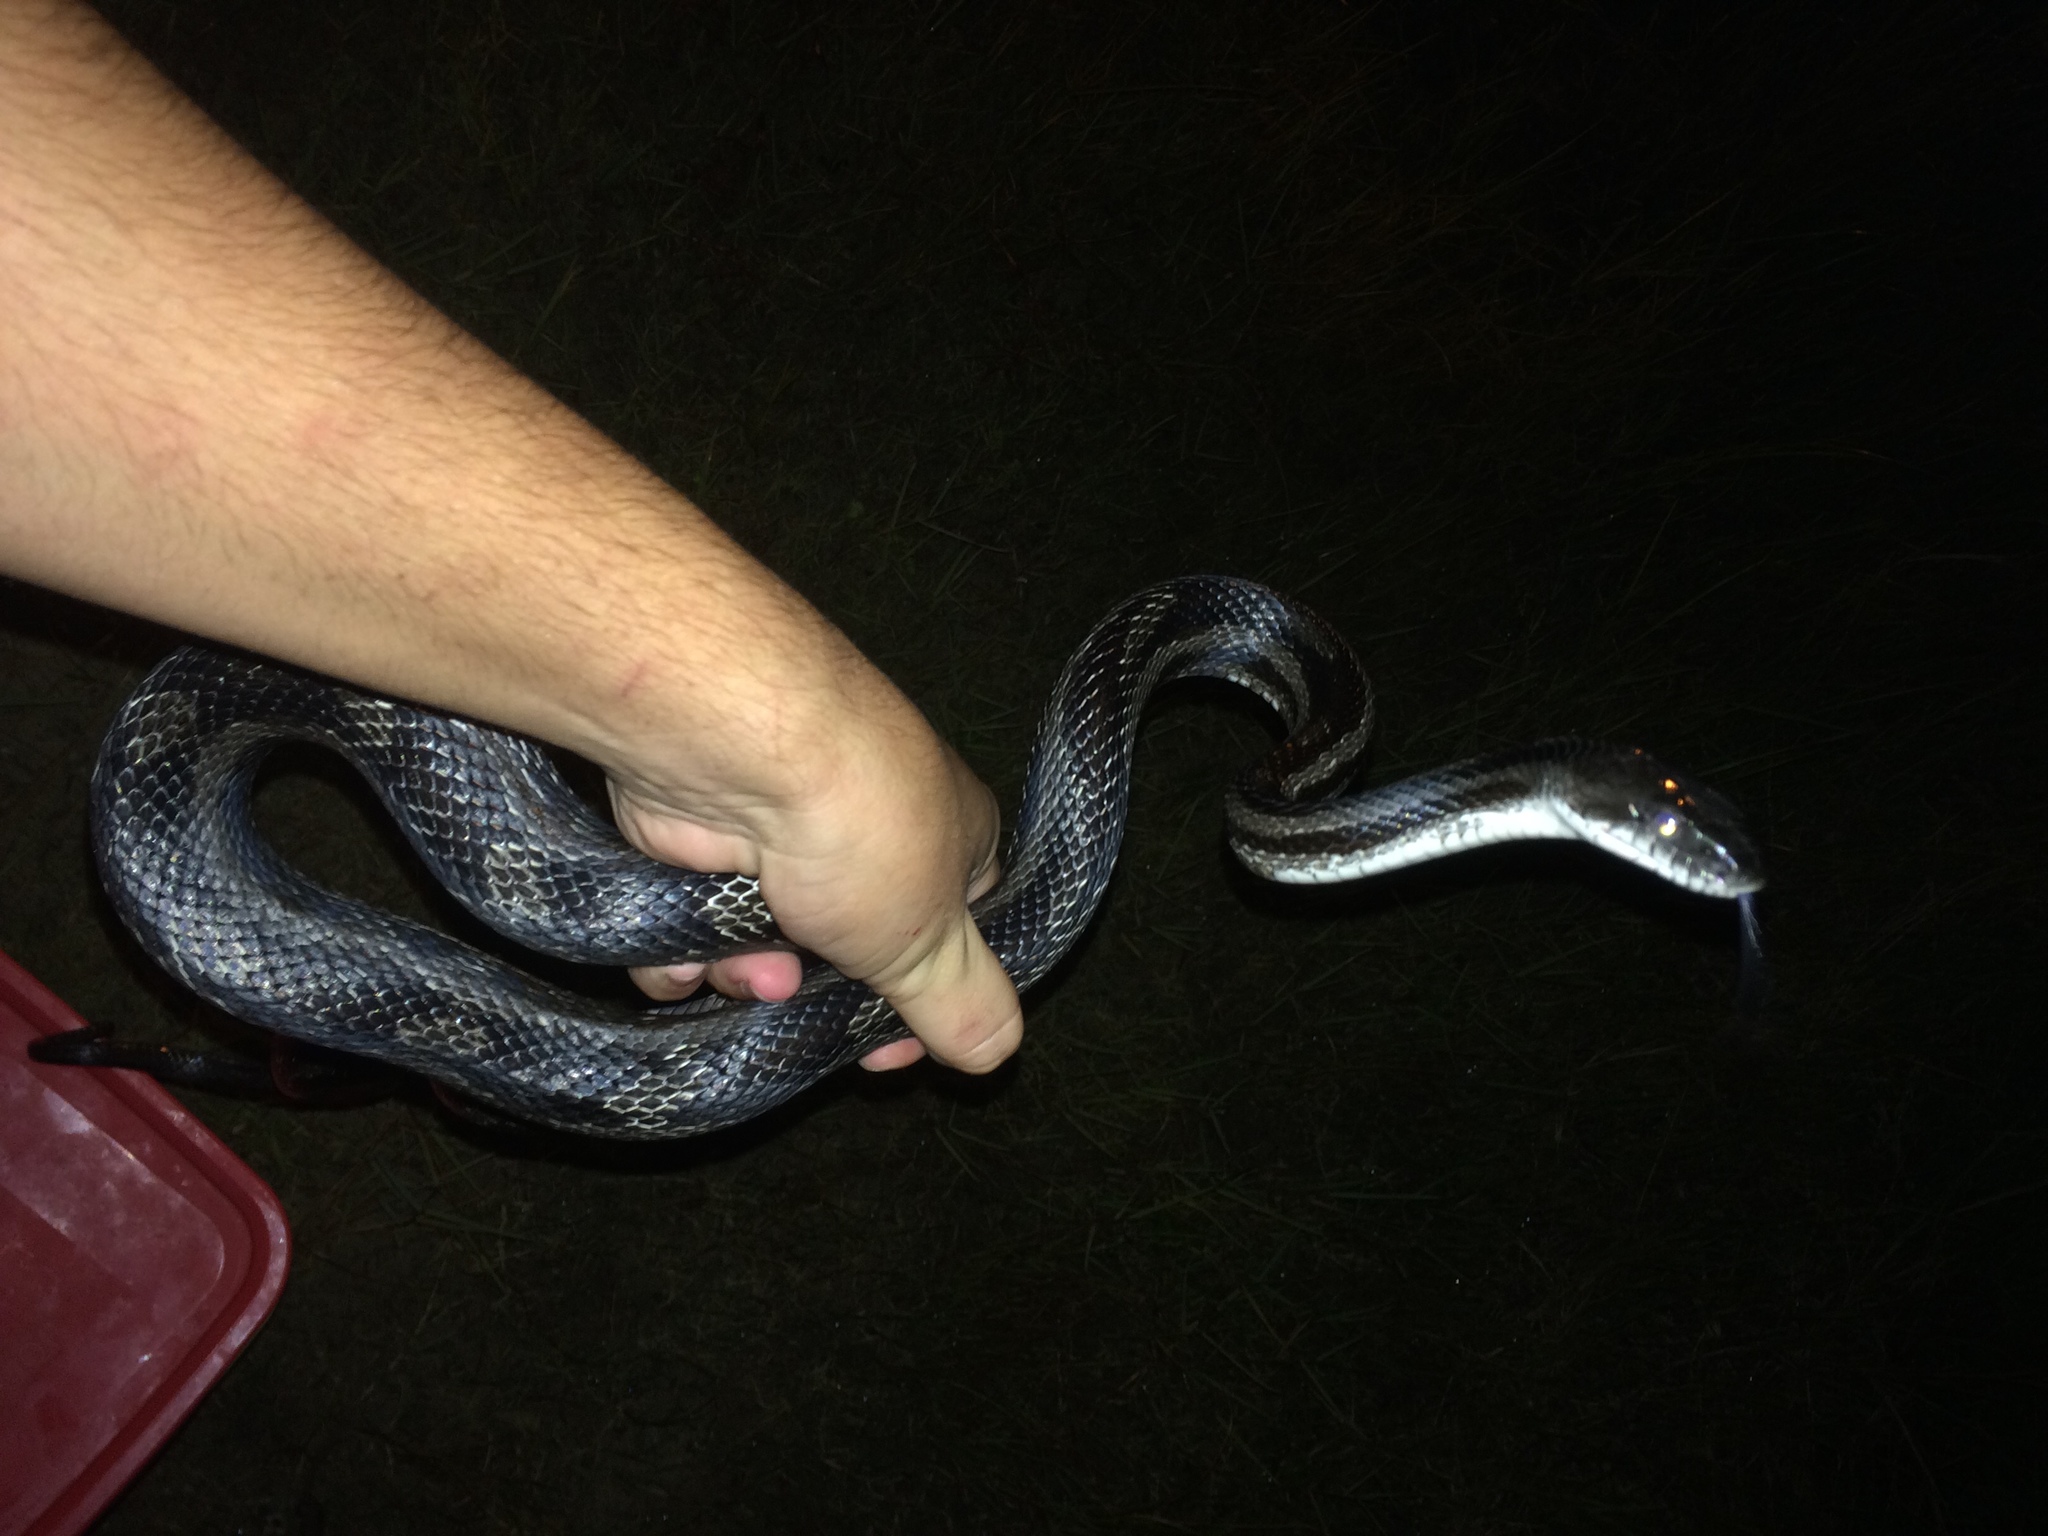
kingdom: Animalia
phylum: Chordata
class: Squamata
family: Colubridae
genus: Pantherophis
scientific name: Pantherophis spiloides
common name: Gray rat snake
